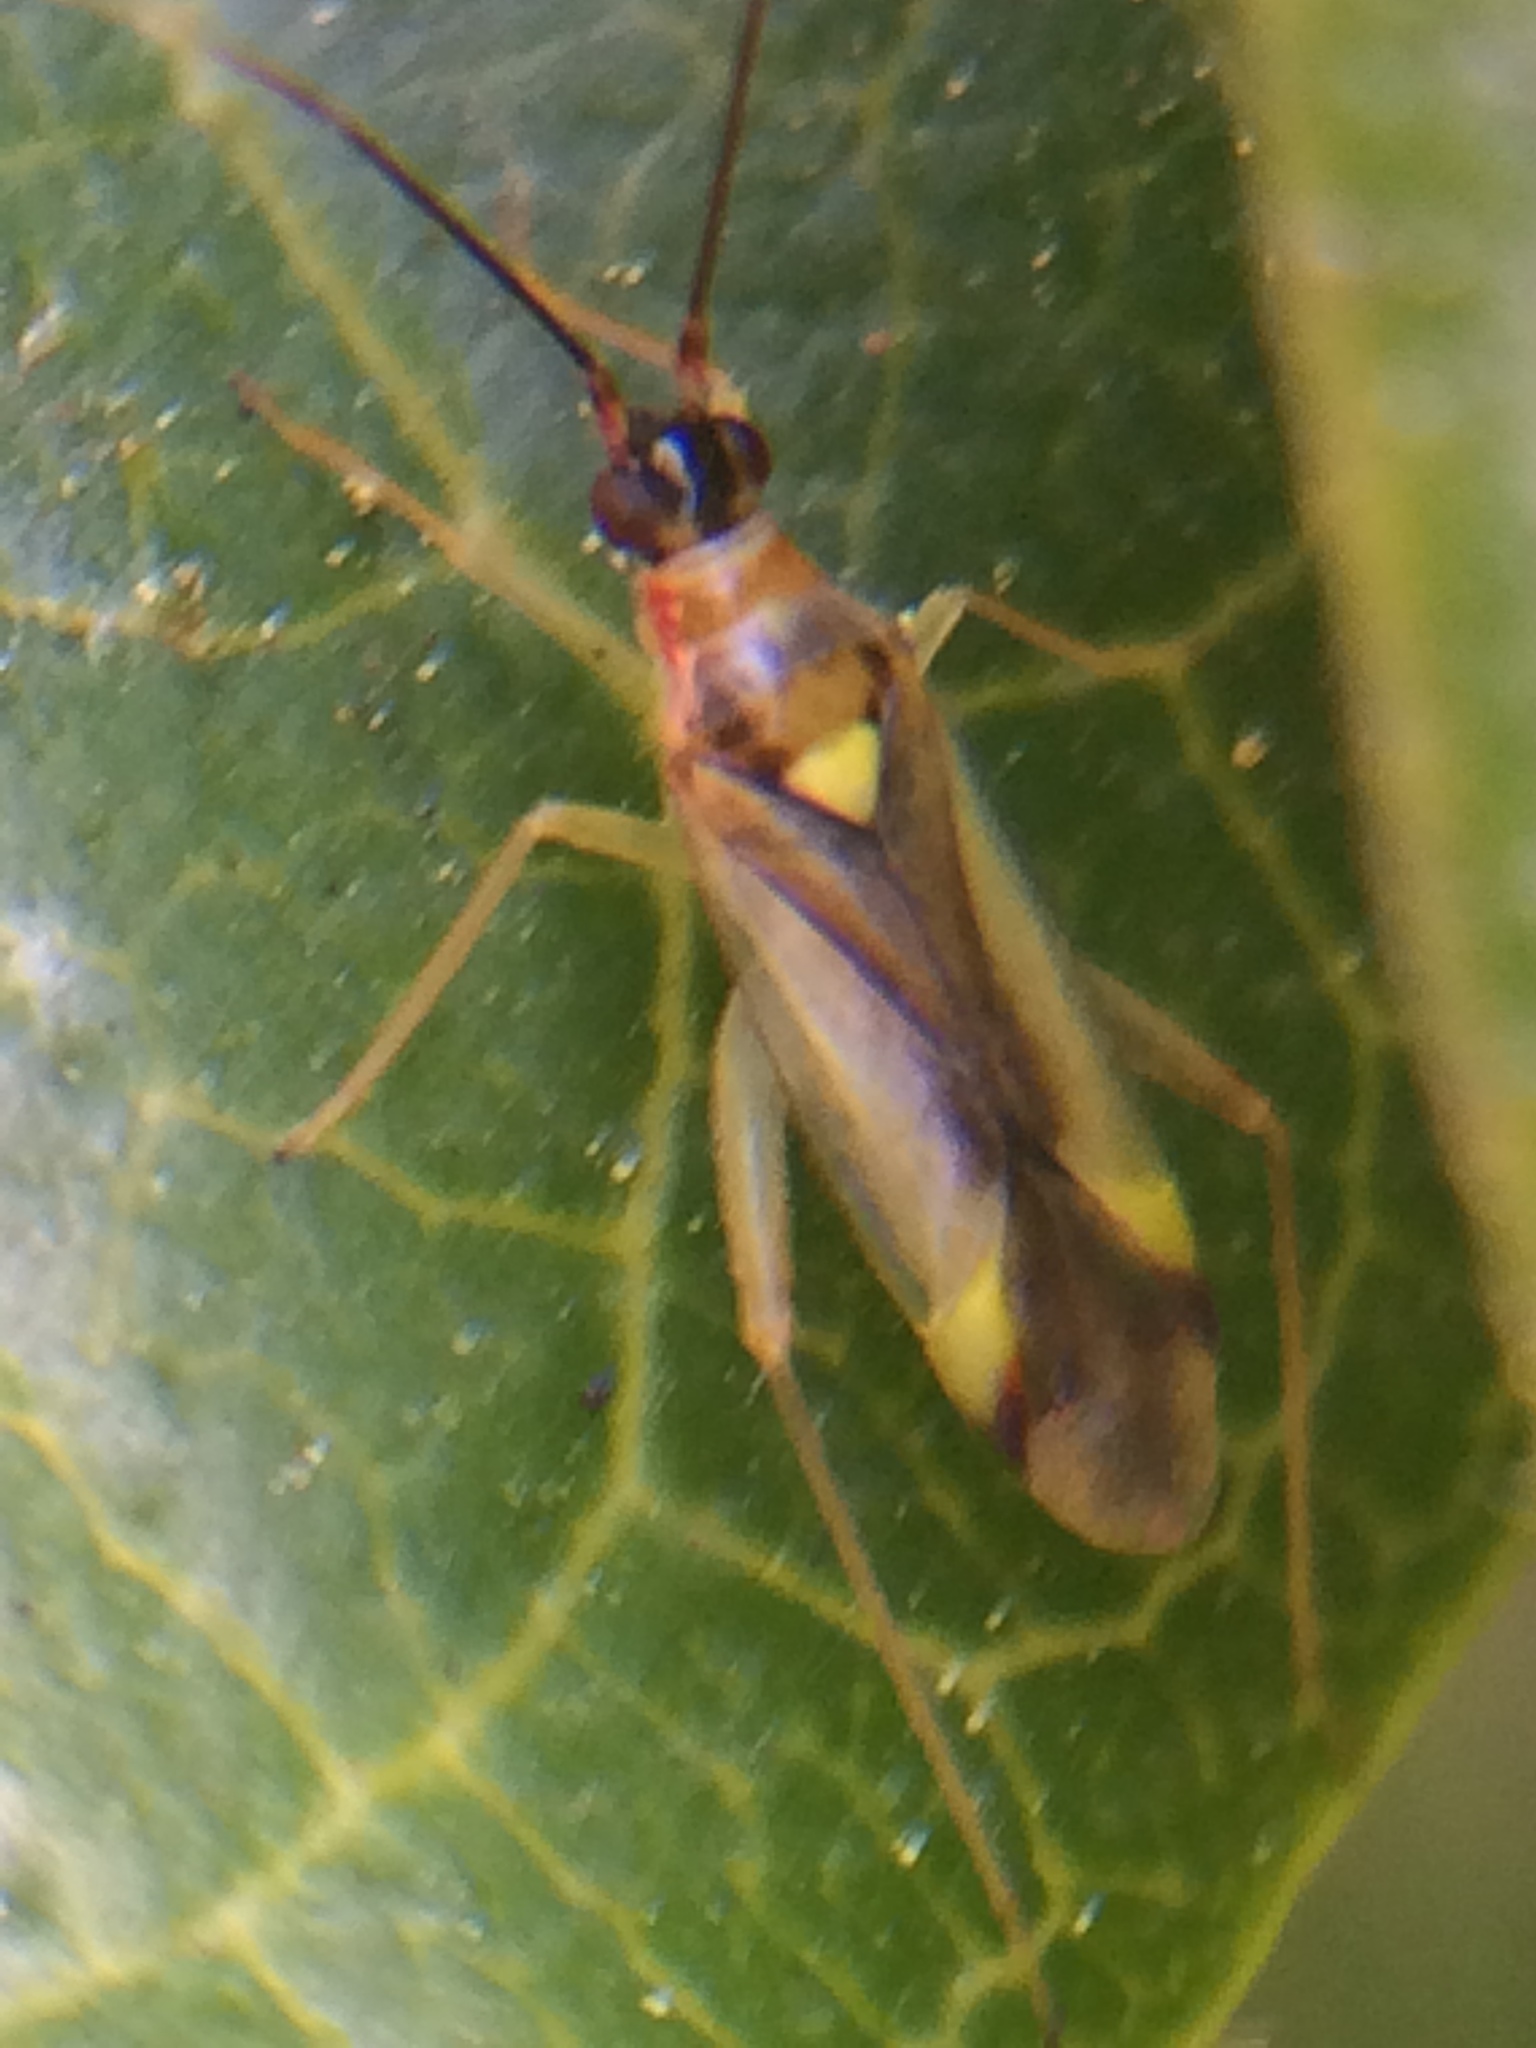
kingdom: Animalia
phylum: Arthropoda
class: Insecta
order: Hemiptera
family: Miridae
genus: Campyloneura
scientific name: Campyloneura virgula
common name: Predatory bug
